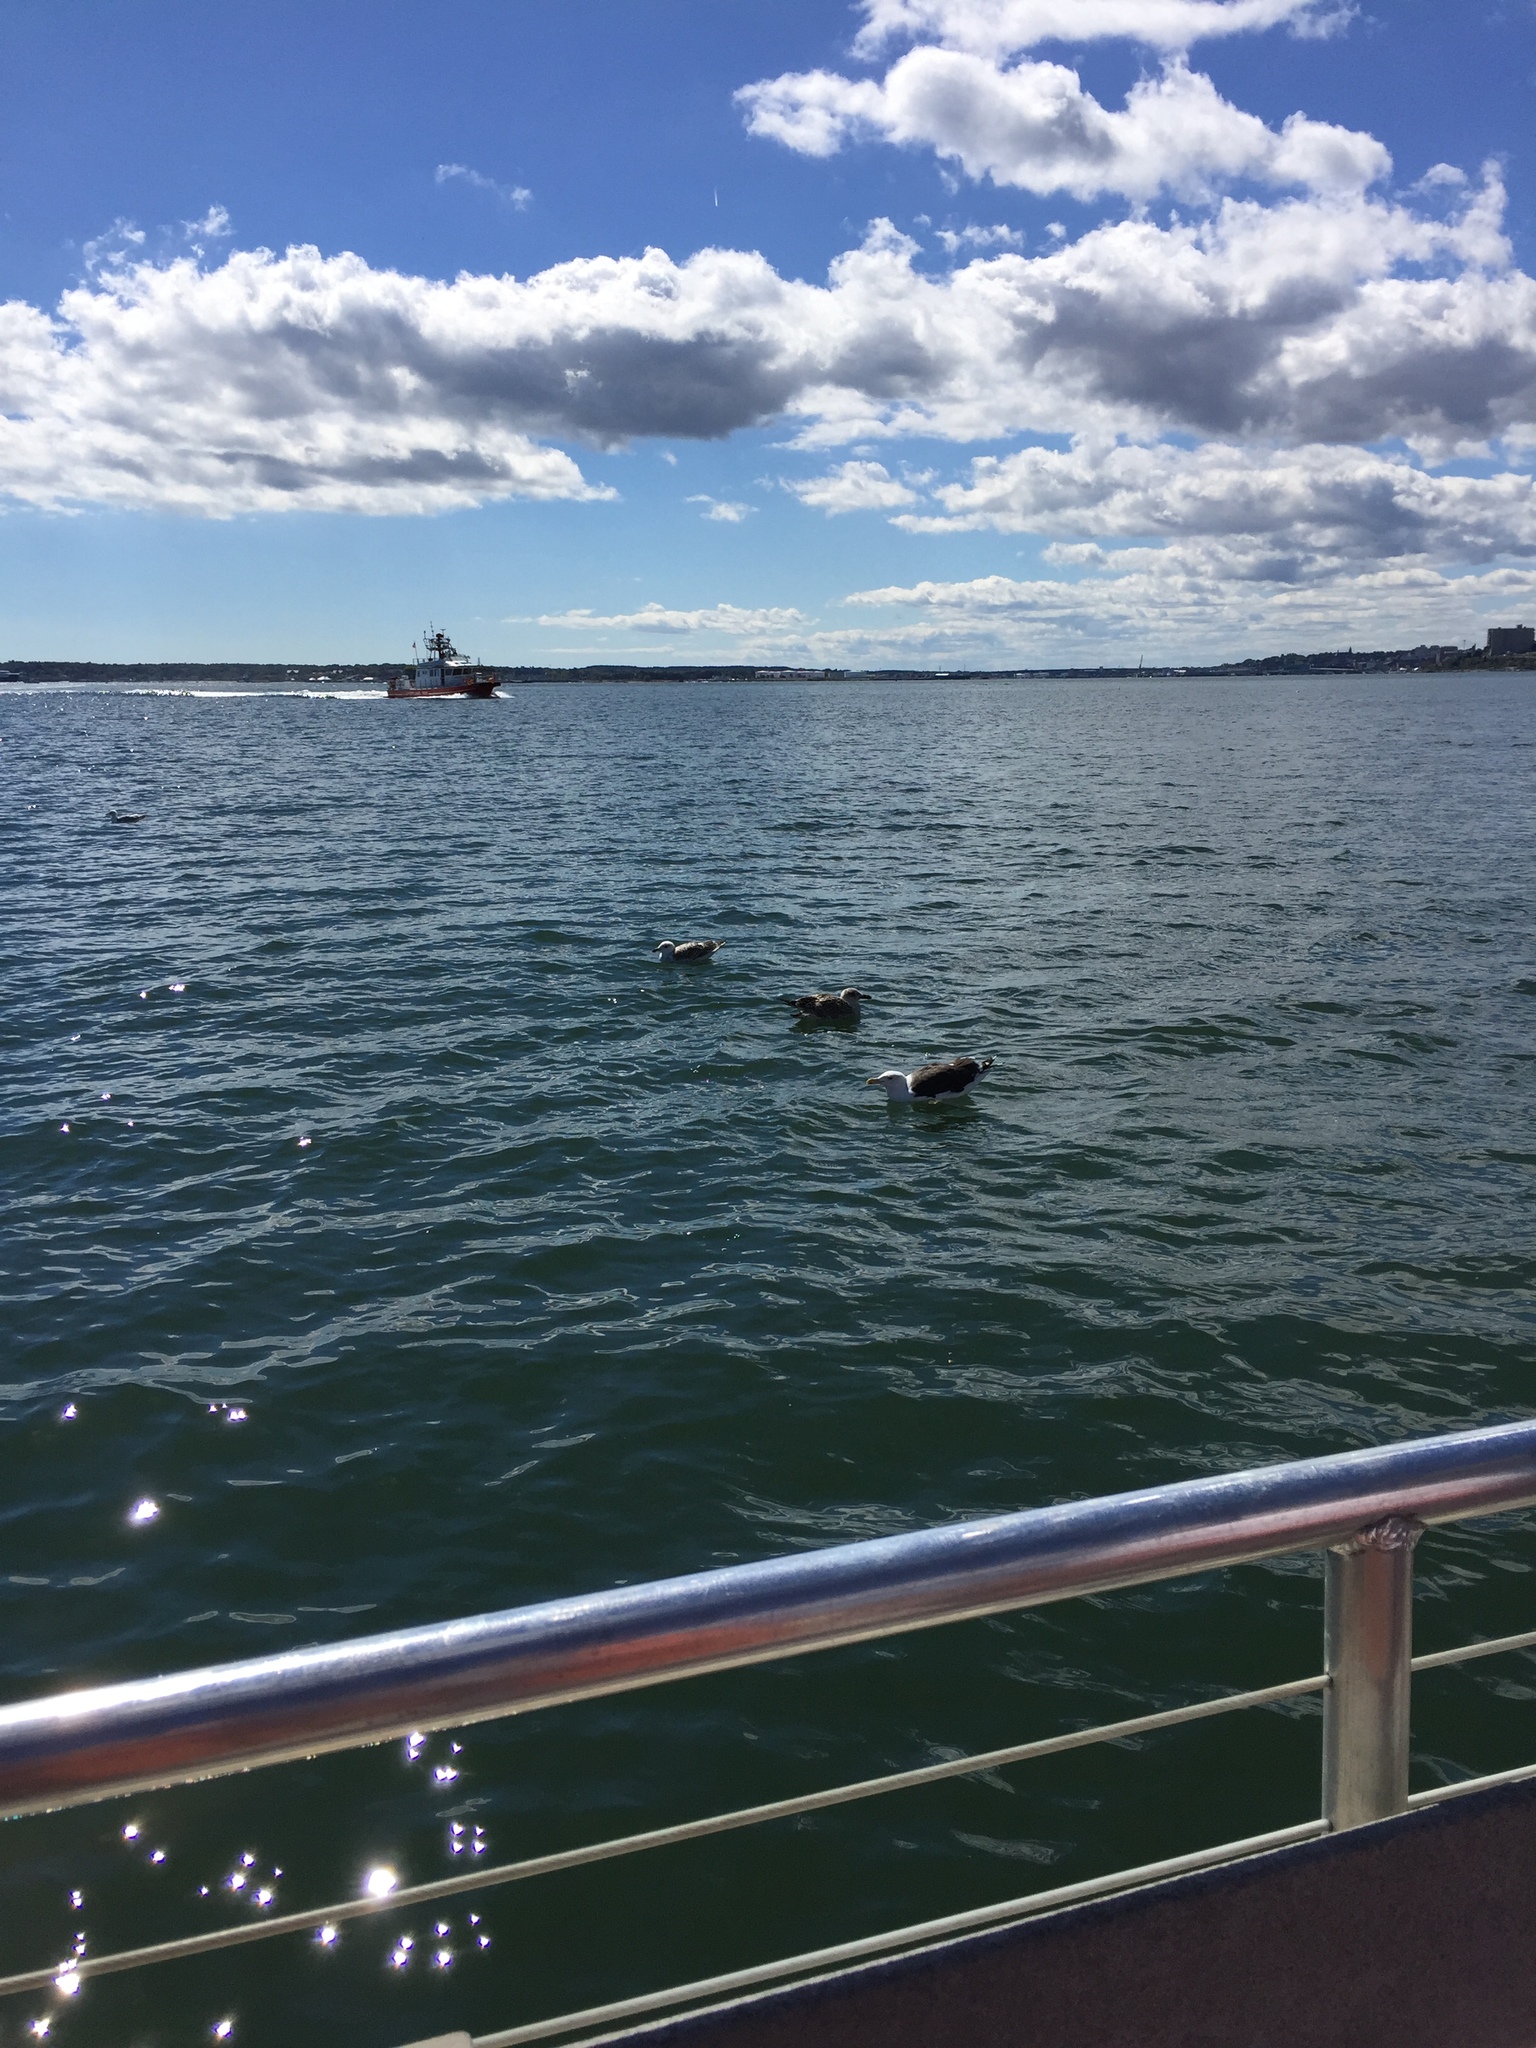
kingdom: Animalia
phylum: Chordata
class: Aves
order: Charadriiformes
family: Laridae
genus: Larus
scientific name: Larus marinus
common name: Great black-backed gull
